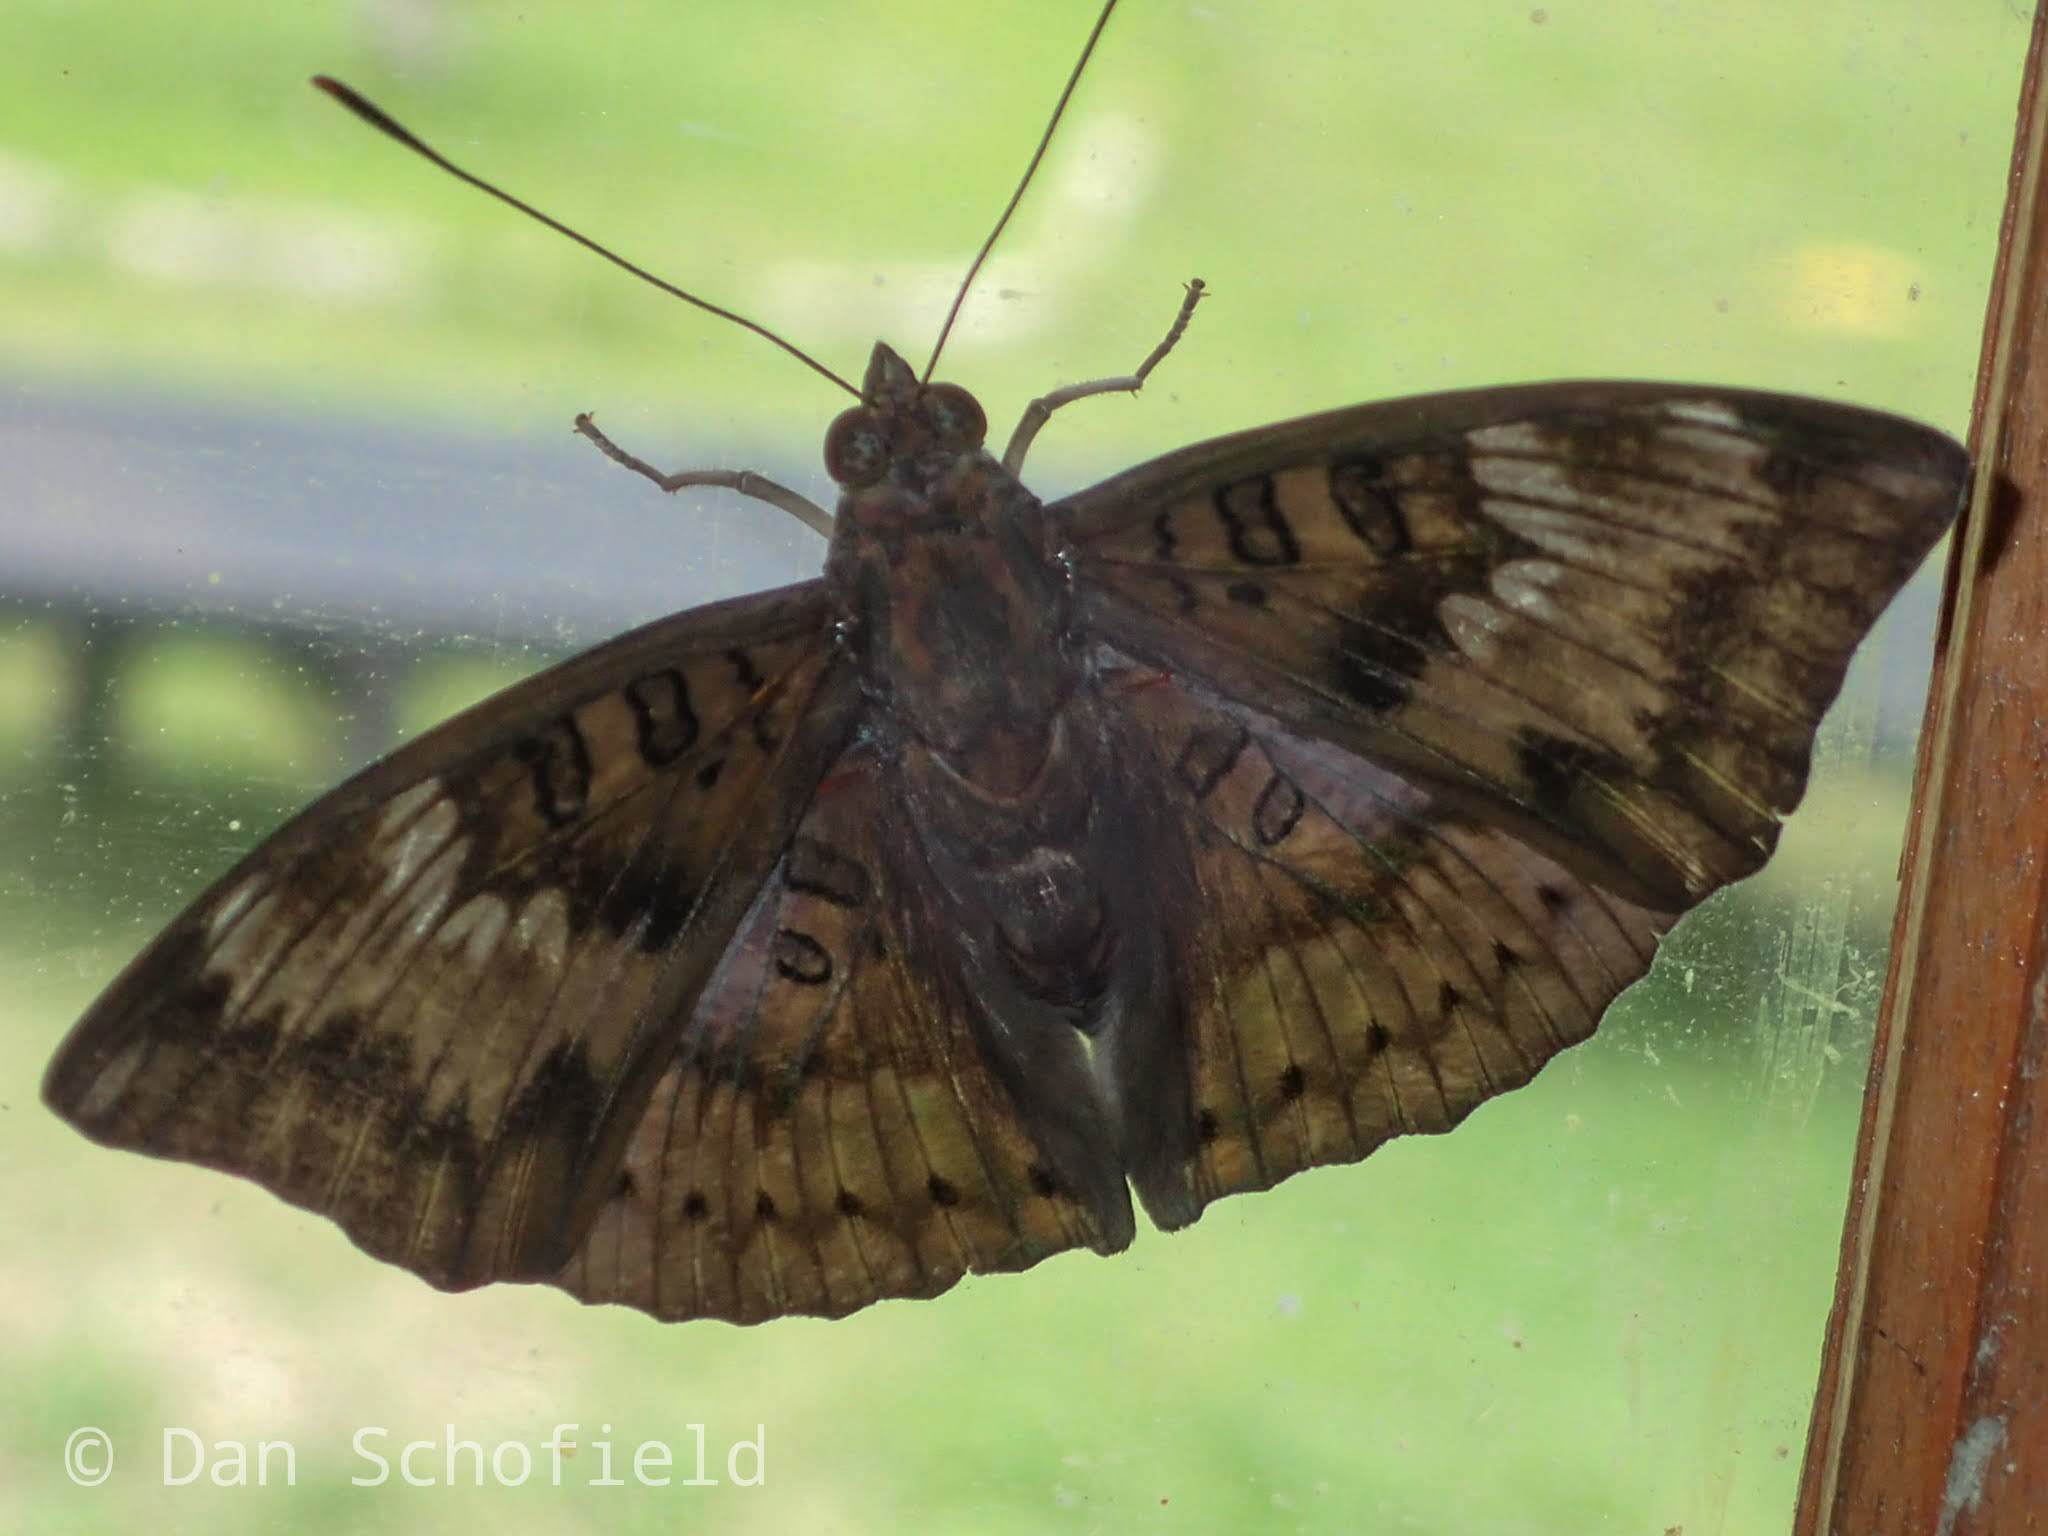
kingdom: Animalia
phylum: Arthropoda
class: Insecta
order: Lepidoptera
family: Nymphalidae
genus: Euthalia
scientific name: Euthalia aconthea
